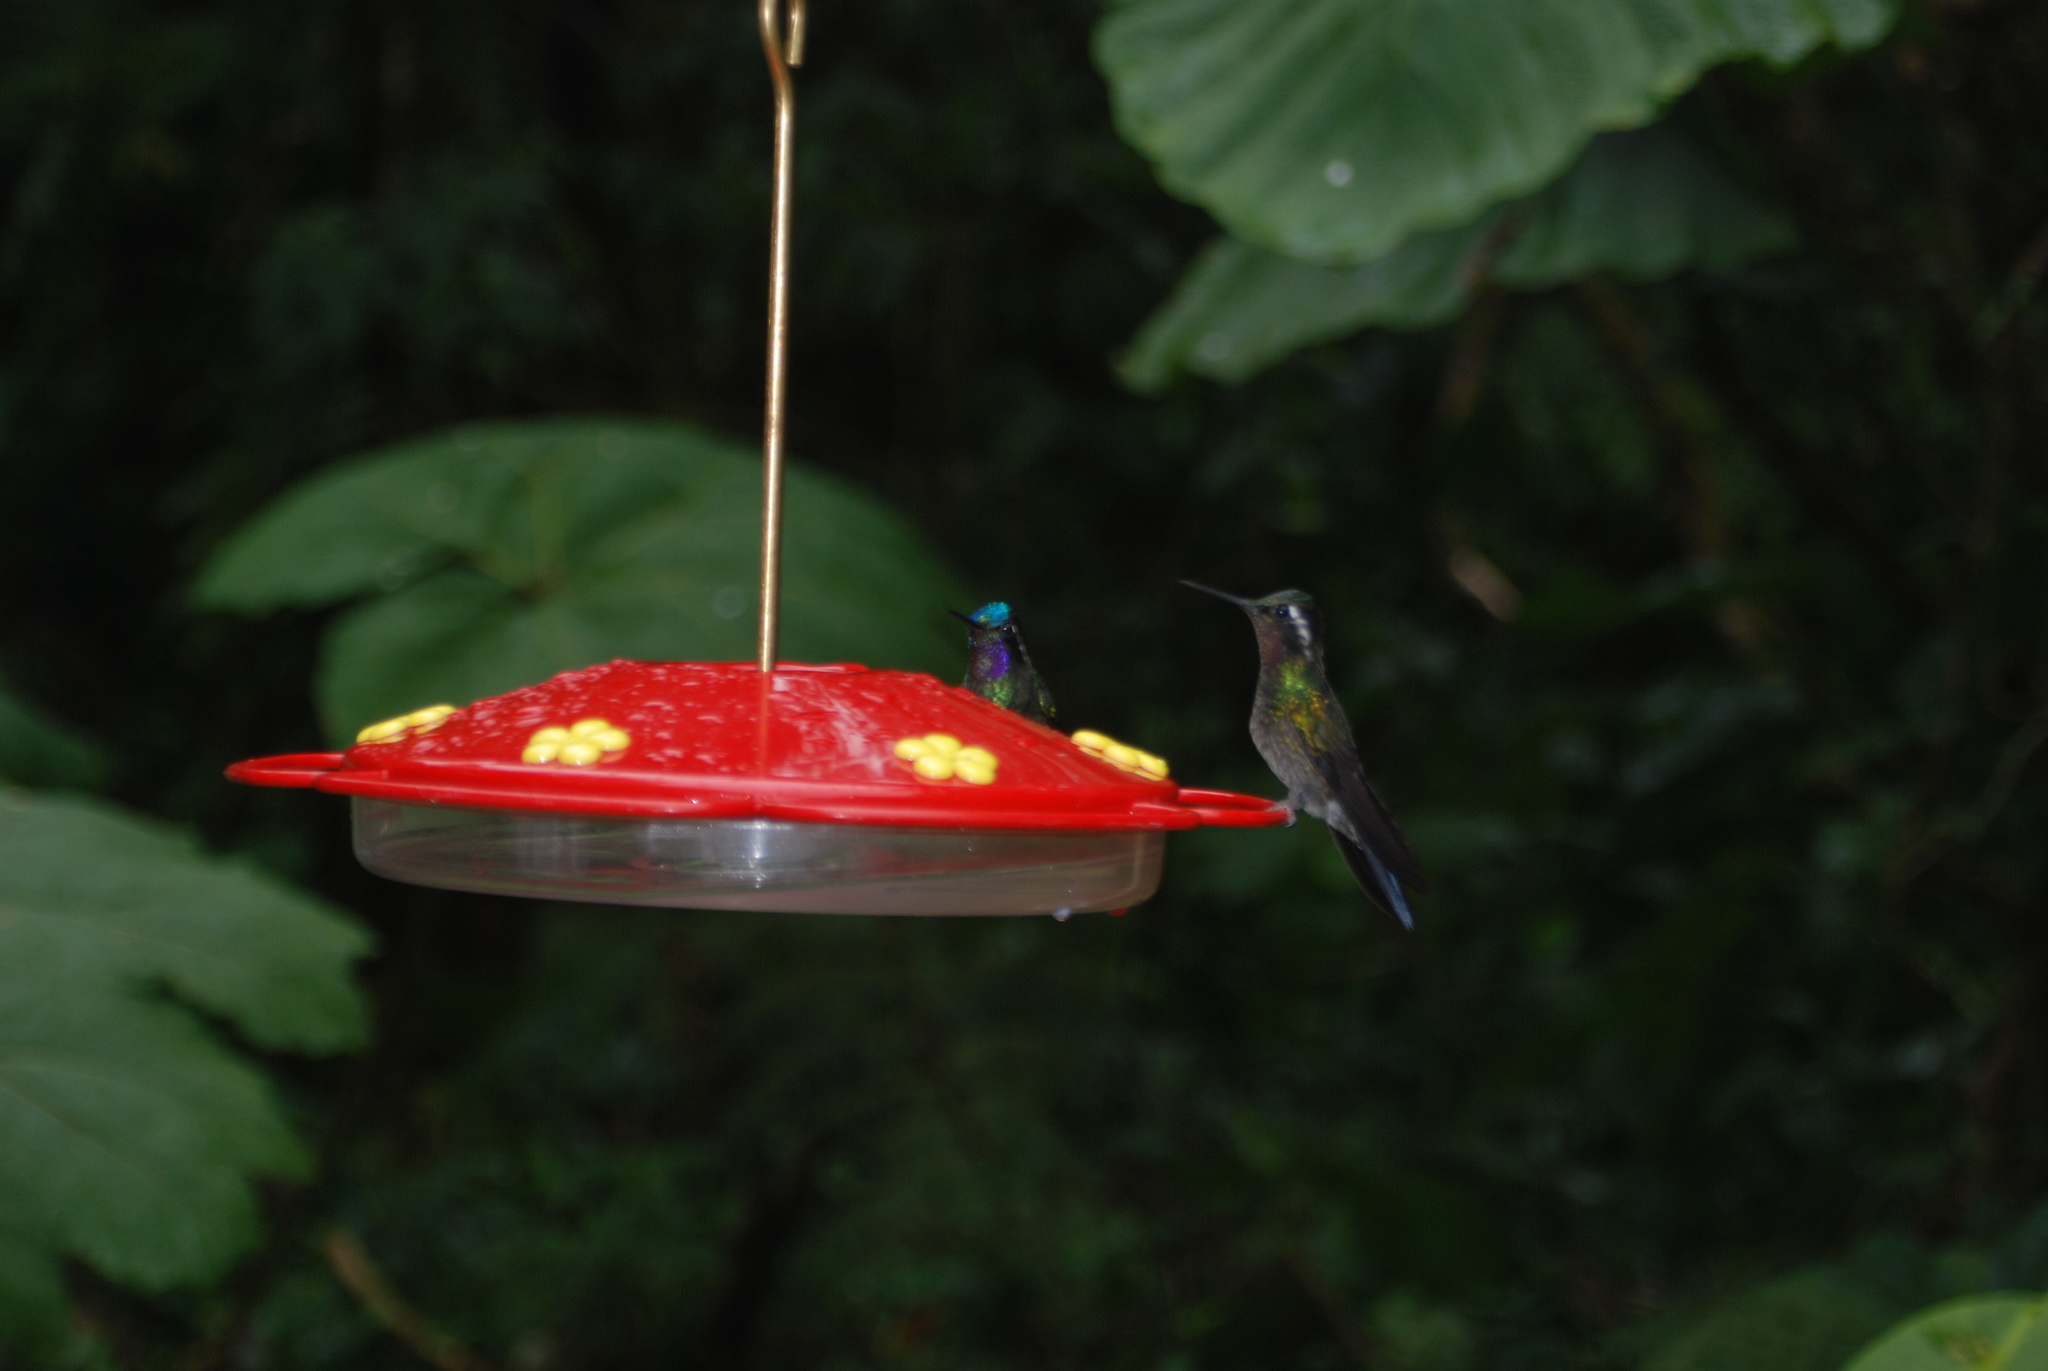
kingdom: Animalia
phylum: Chordata
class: Aves
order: Apodiformes
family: Trochilidae
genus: Lampornis
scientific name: Lampornis calolaemus
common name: Purple-throated mountain-gem
